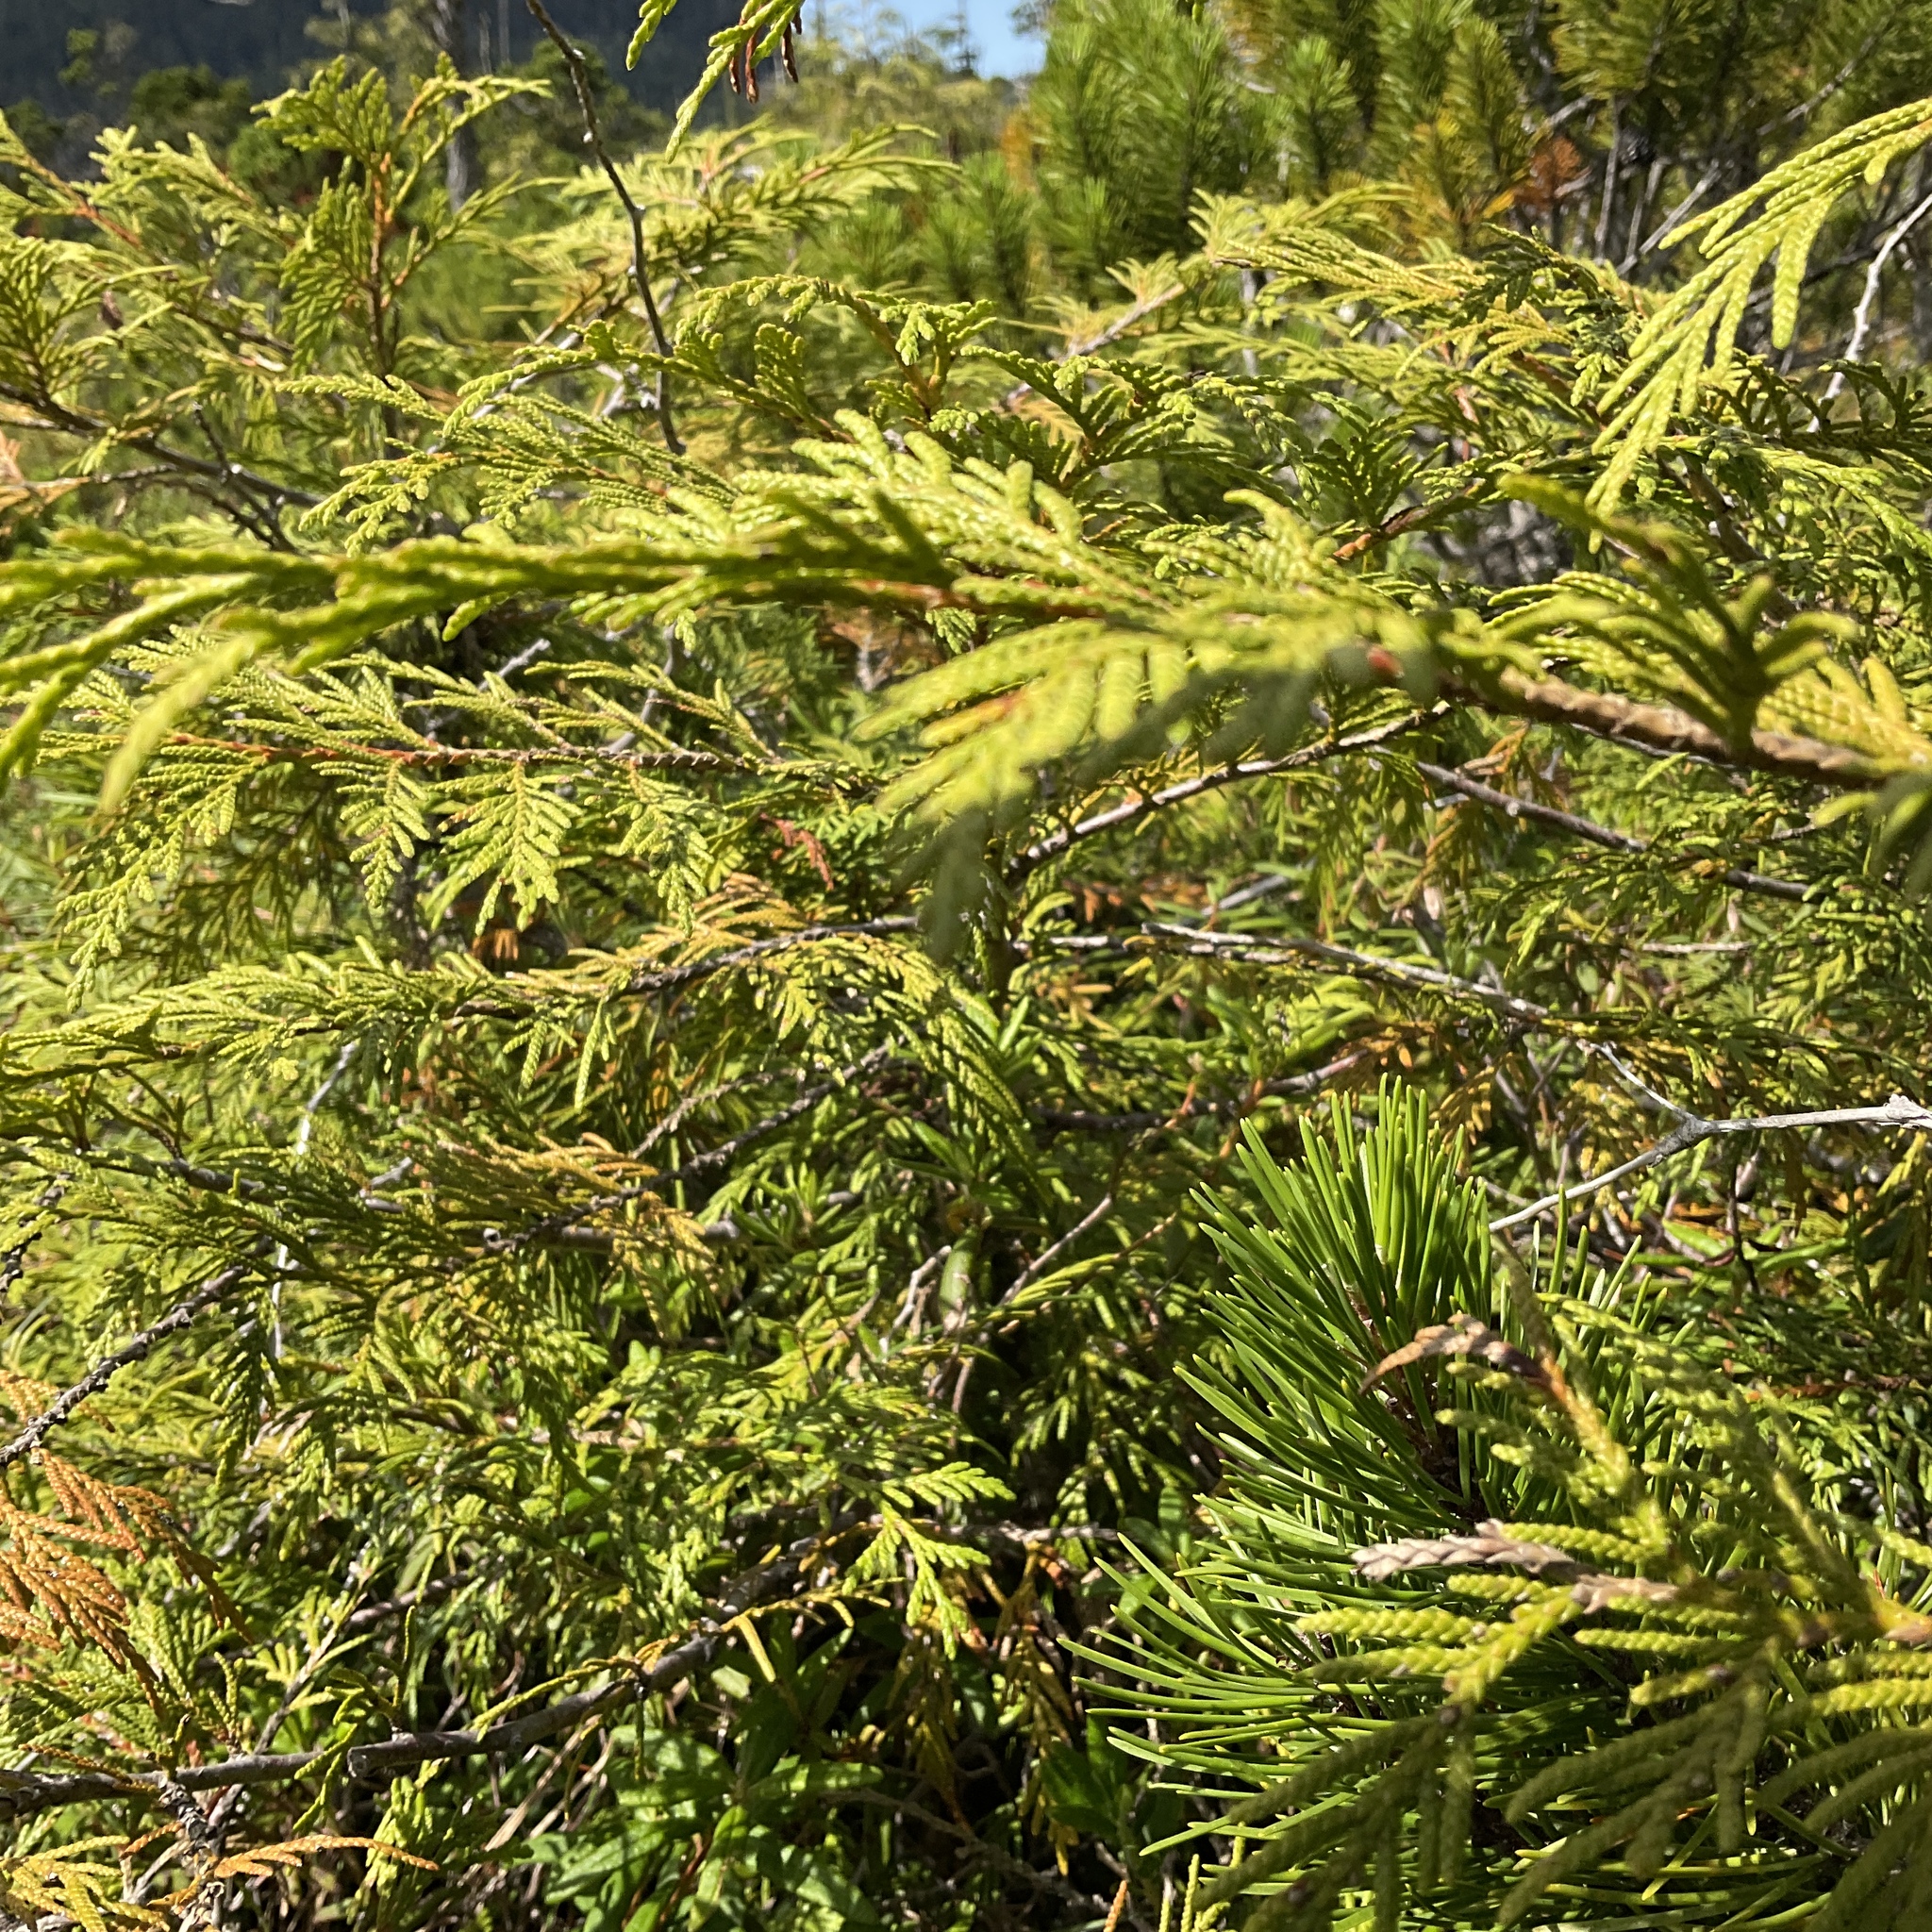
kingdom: Plantae
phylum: Tracheophyta
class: Pinopsida
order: Pinales
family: Cupressaceae
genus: Thuja
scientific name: Thuja plicata
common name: Western red-cedar
